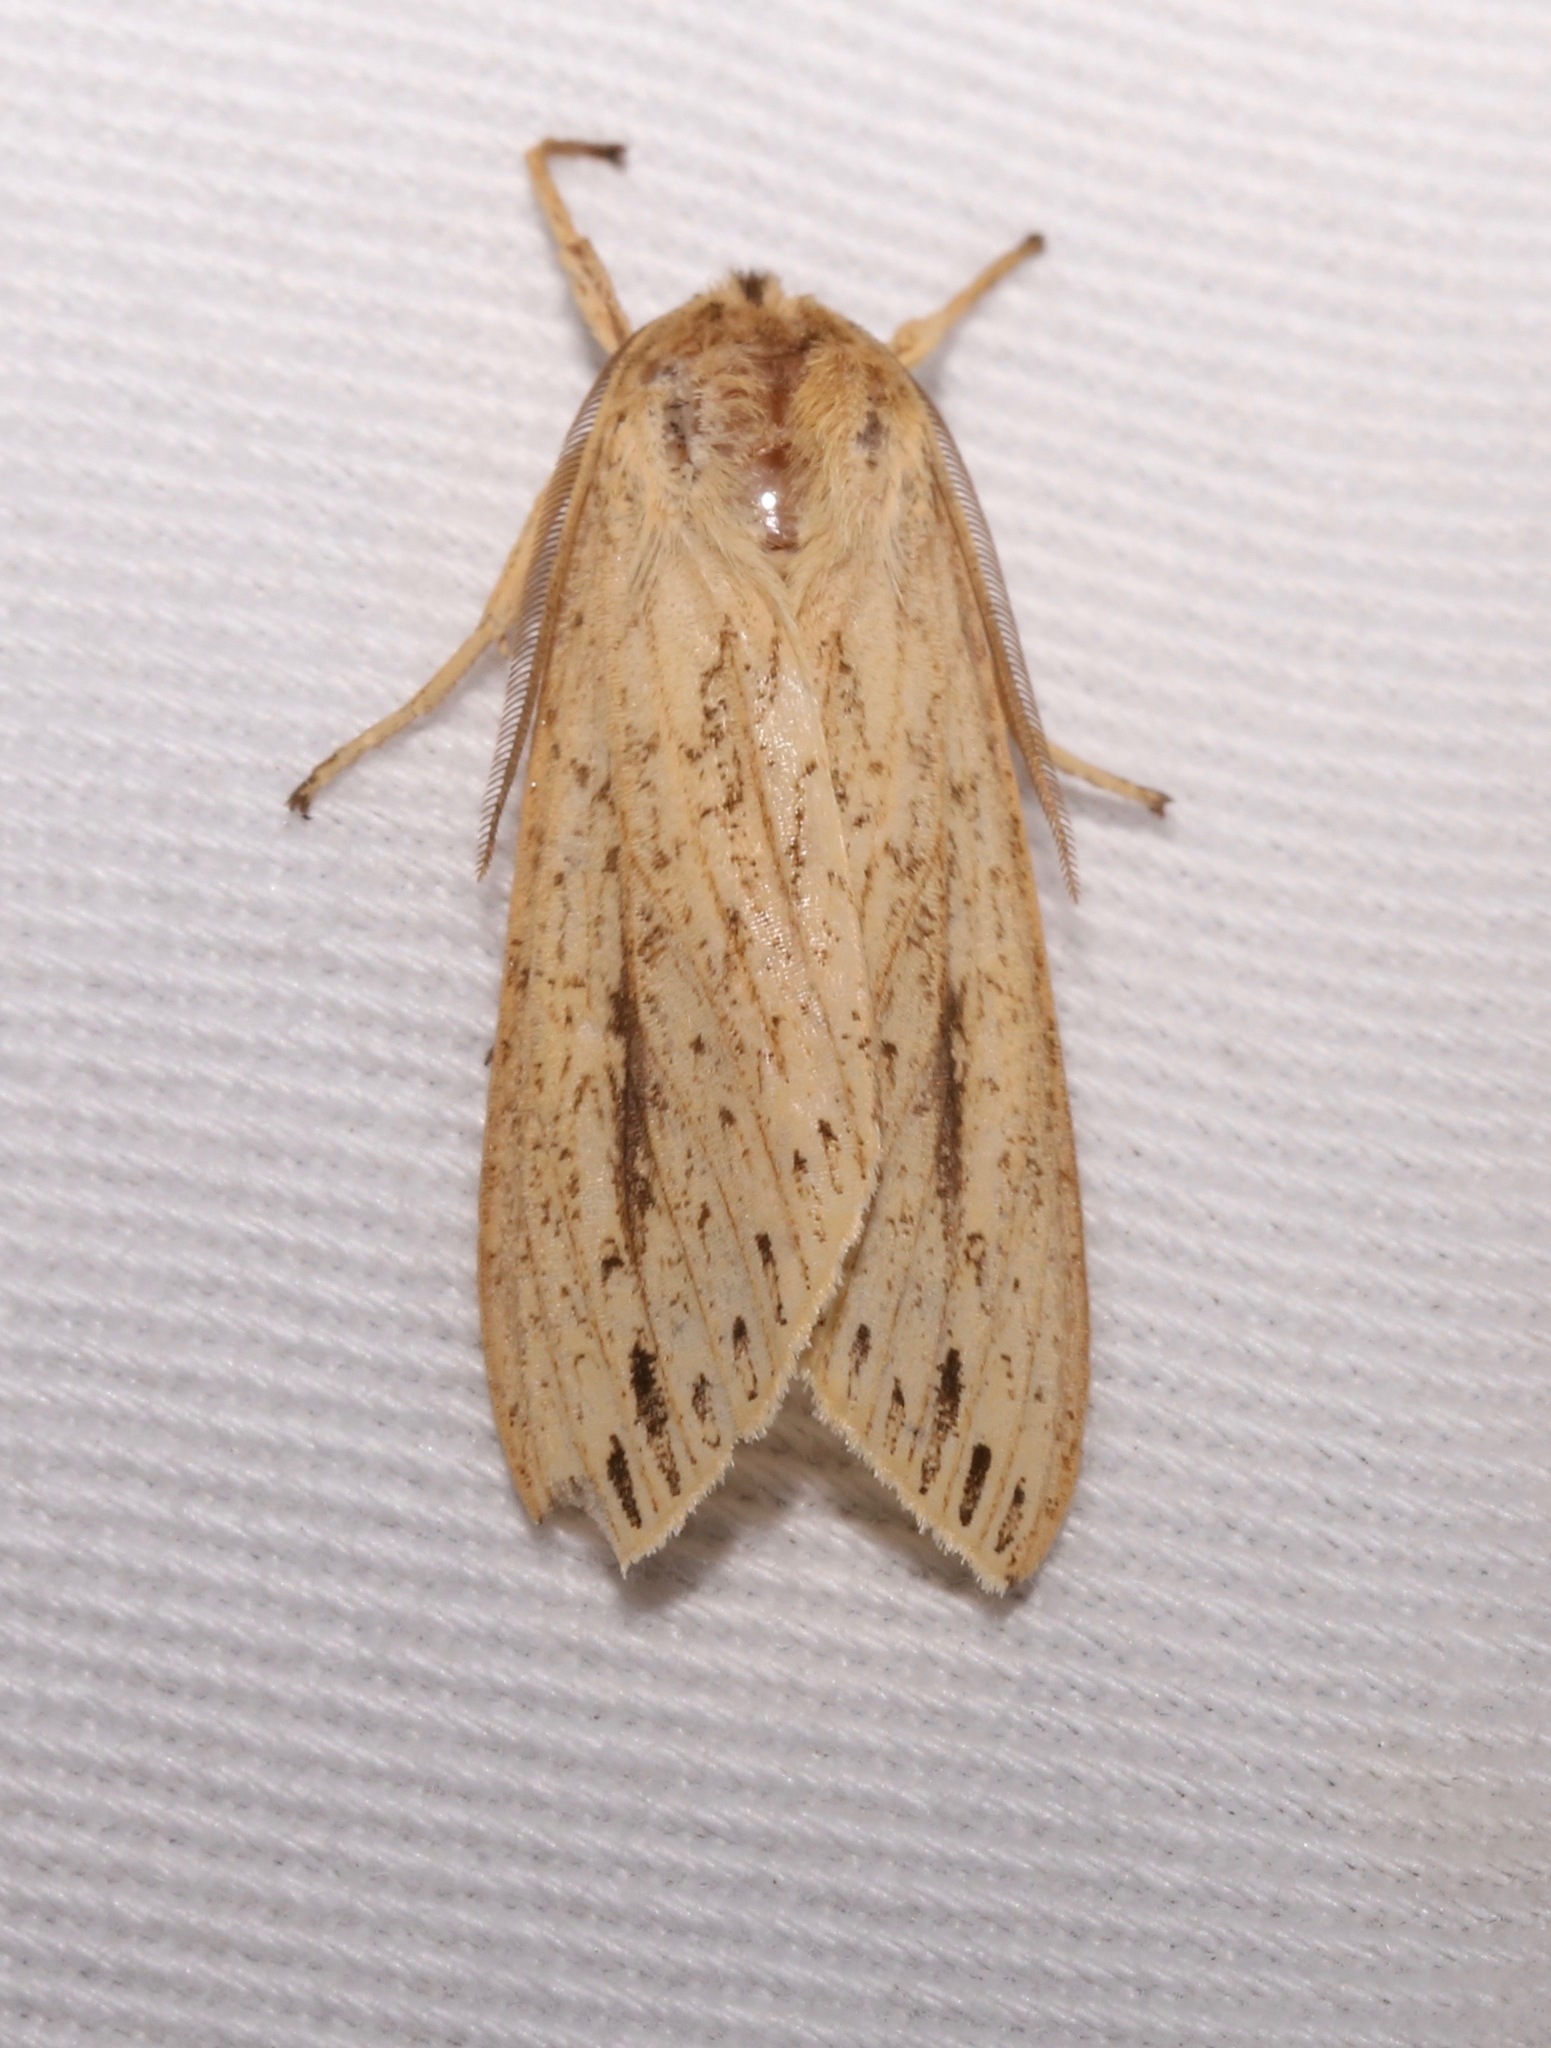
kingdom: Animalia
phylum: Arthropoda
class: Insecta
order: Lepidoptera
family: Erebidae
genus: Leucanopsis
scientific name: Leucanopsis longa
